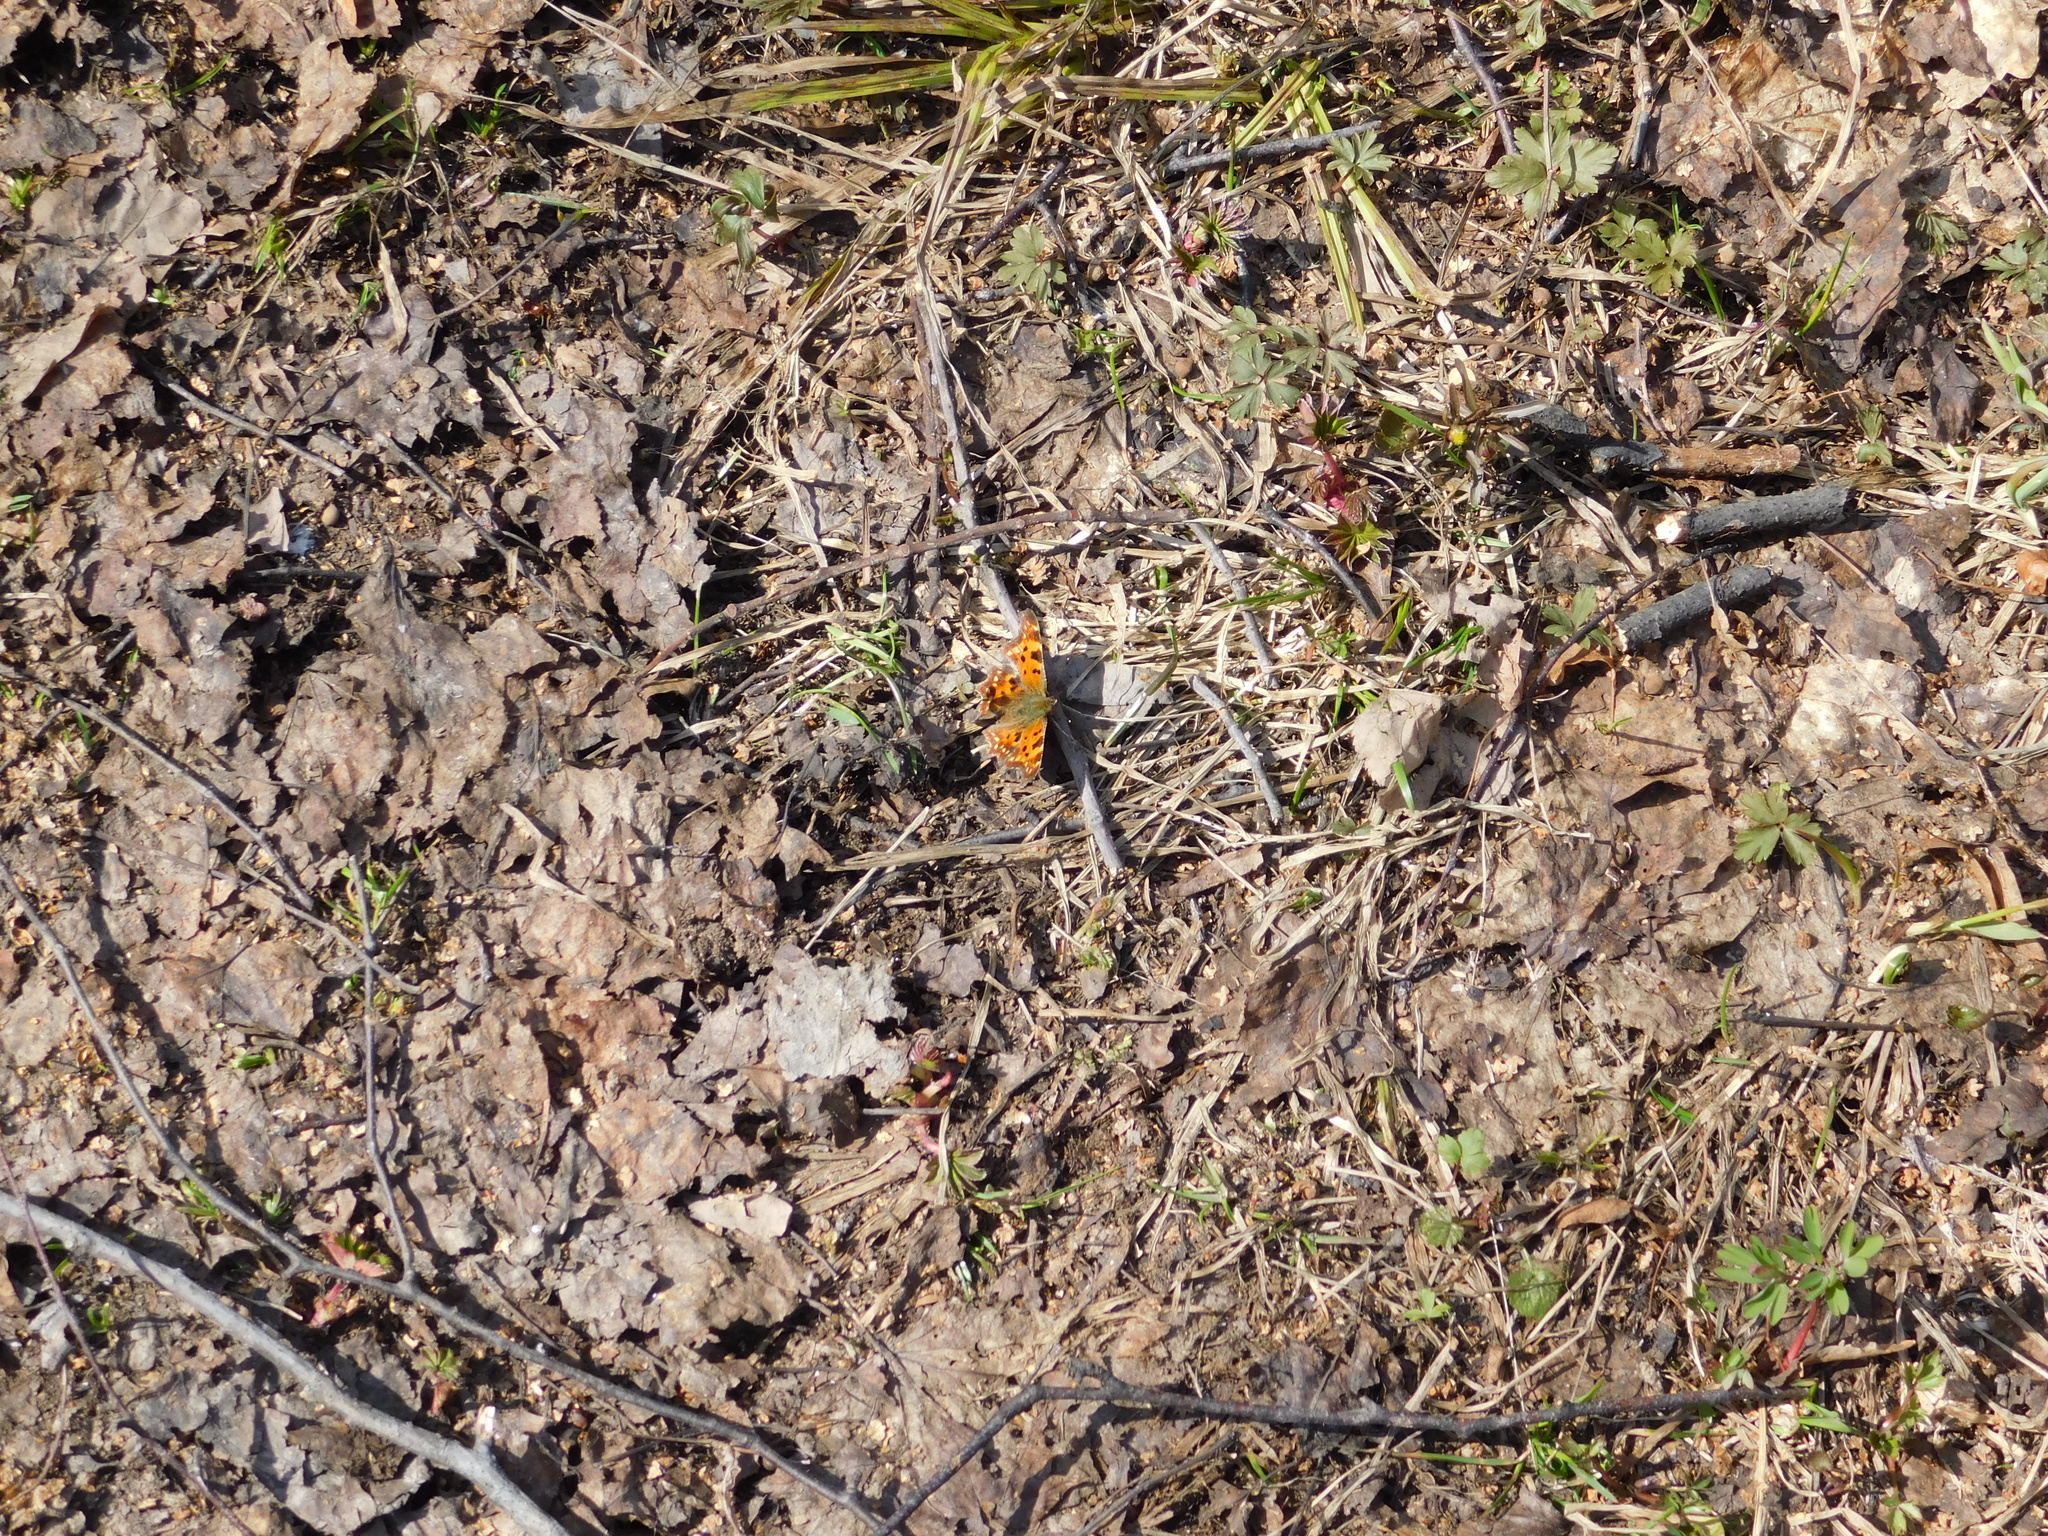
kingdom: Animalia
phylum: Arthropoda
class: Insecta
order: Lepidoptera
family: Nymphalidae
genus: Polygonia
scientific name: Polygonia c-album
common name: Comma
